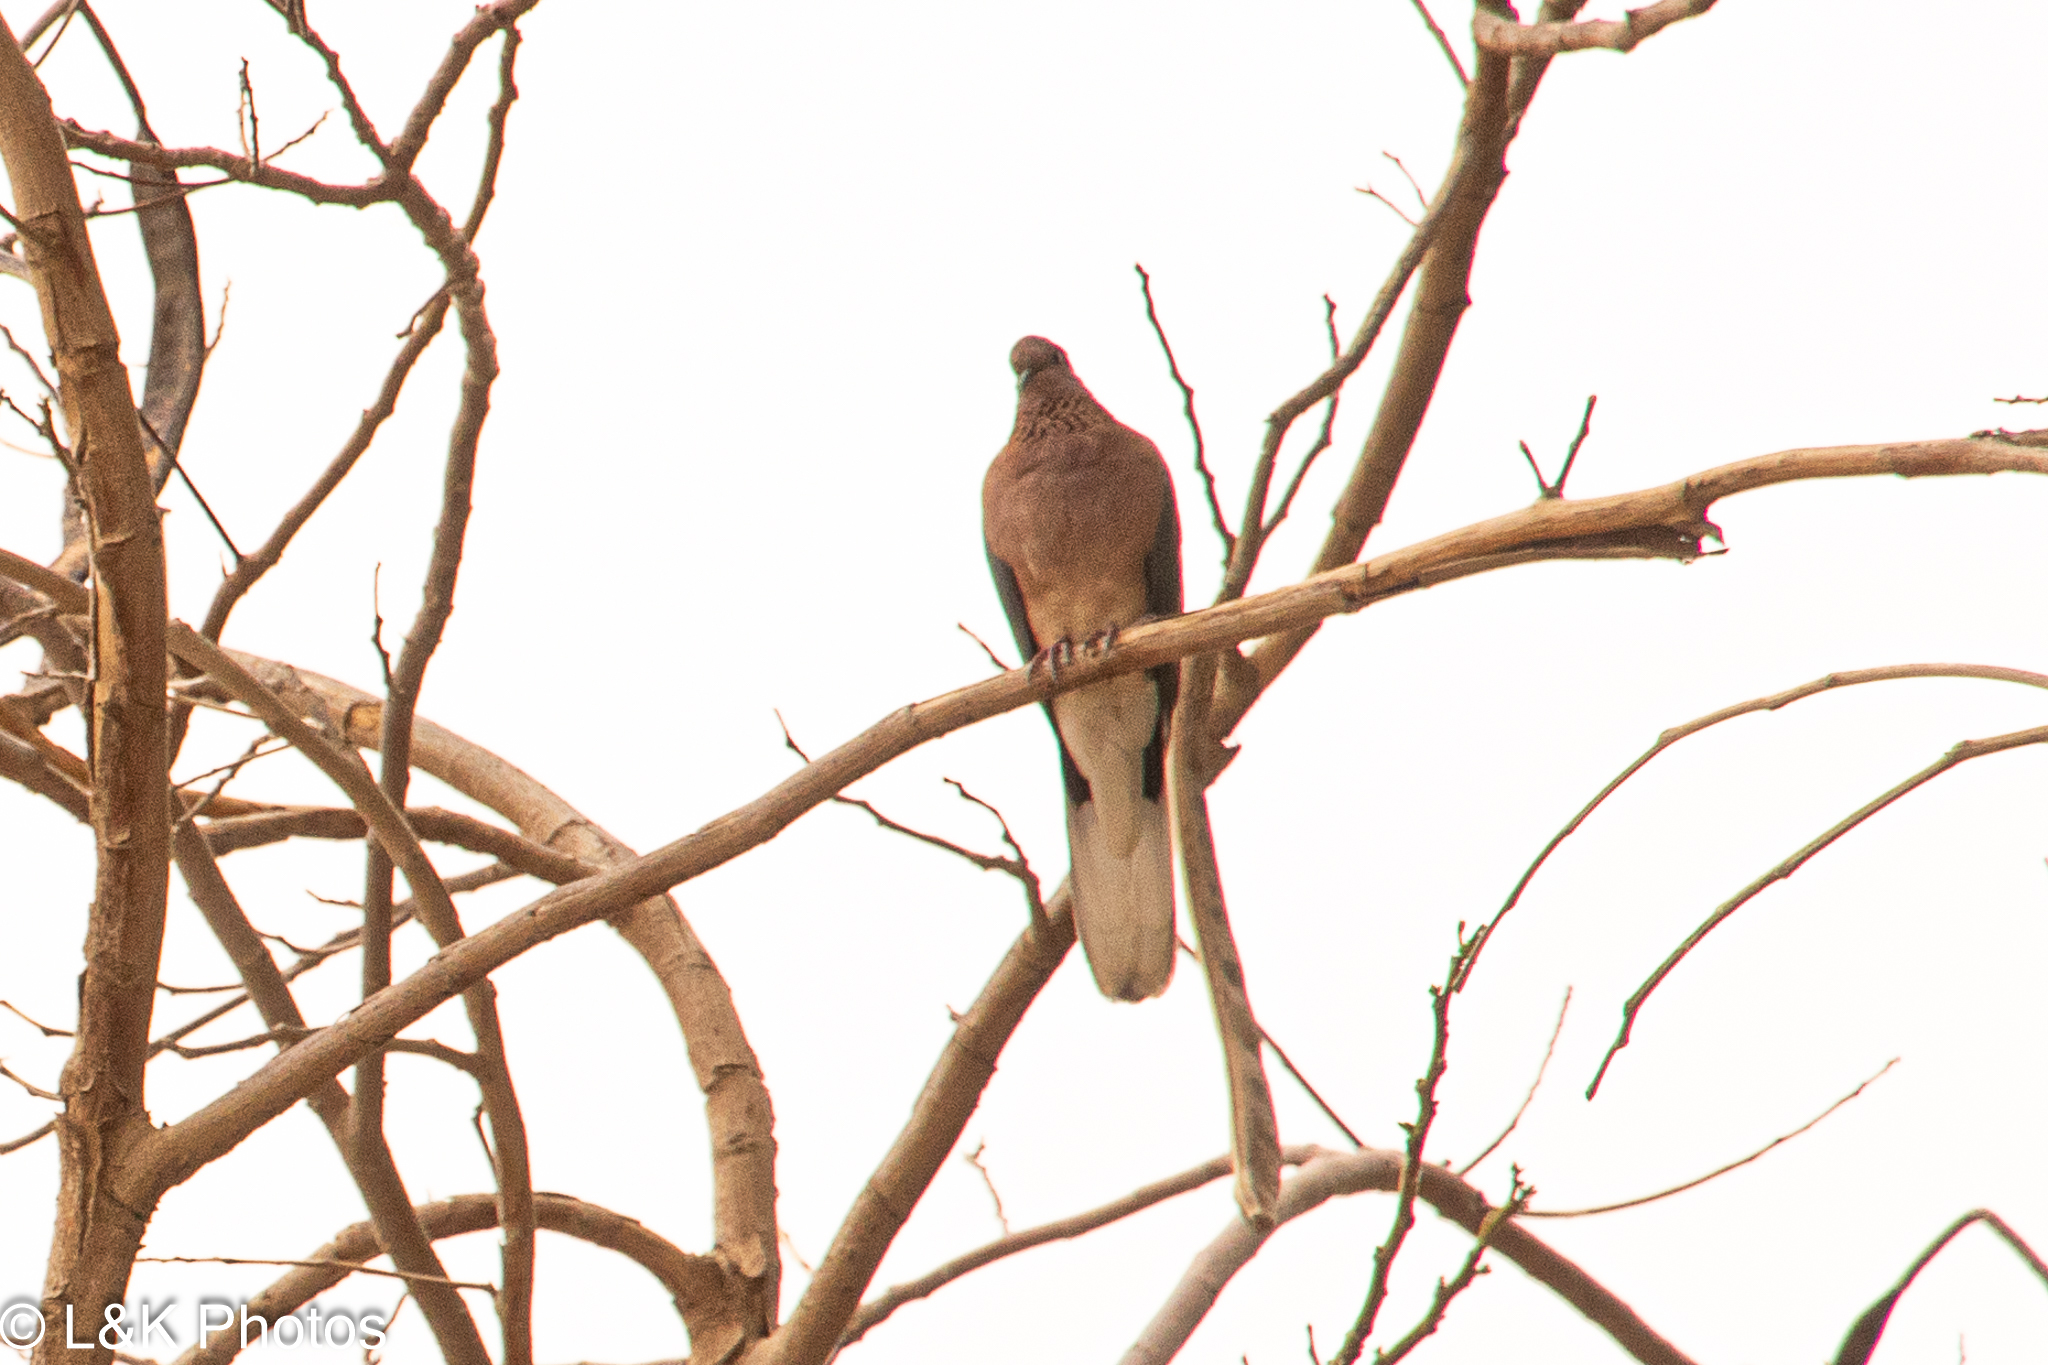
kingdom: Animalia
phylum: Chordata
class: Aves
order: Columbiformes
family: Columbidae
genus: Spilopelia
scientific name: Spilopelia senegalensis
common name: Laughing dove
